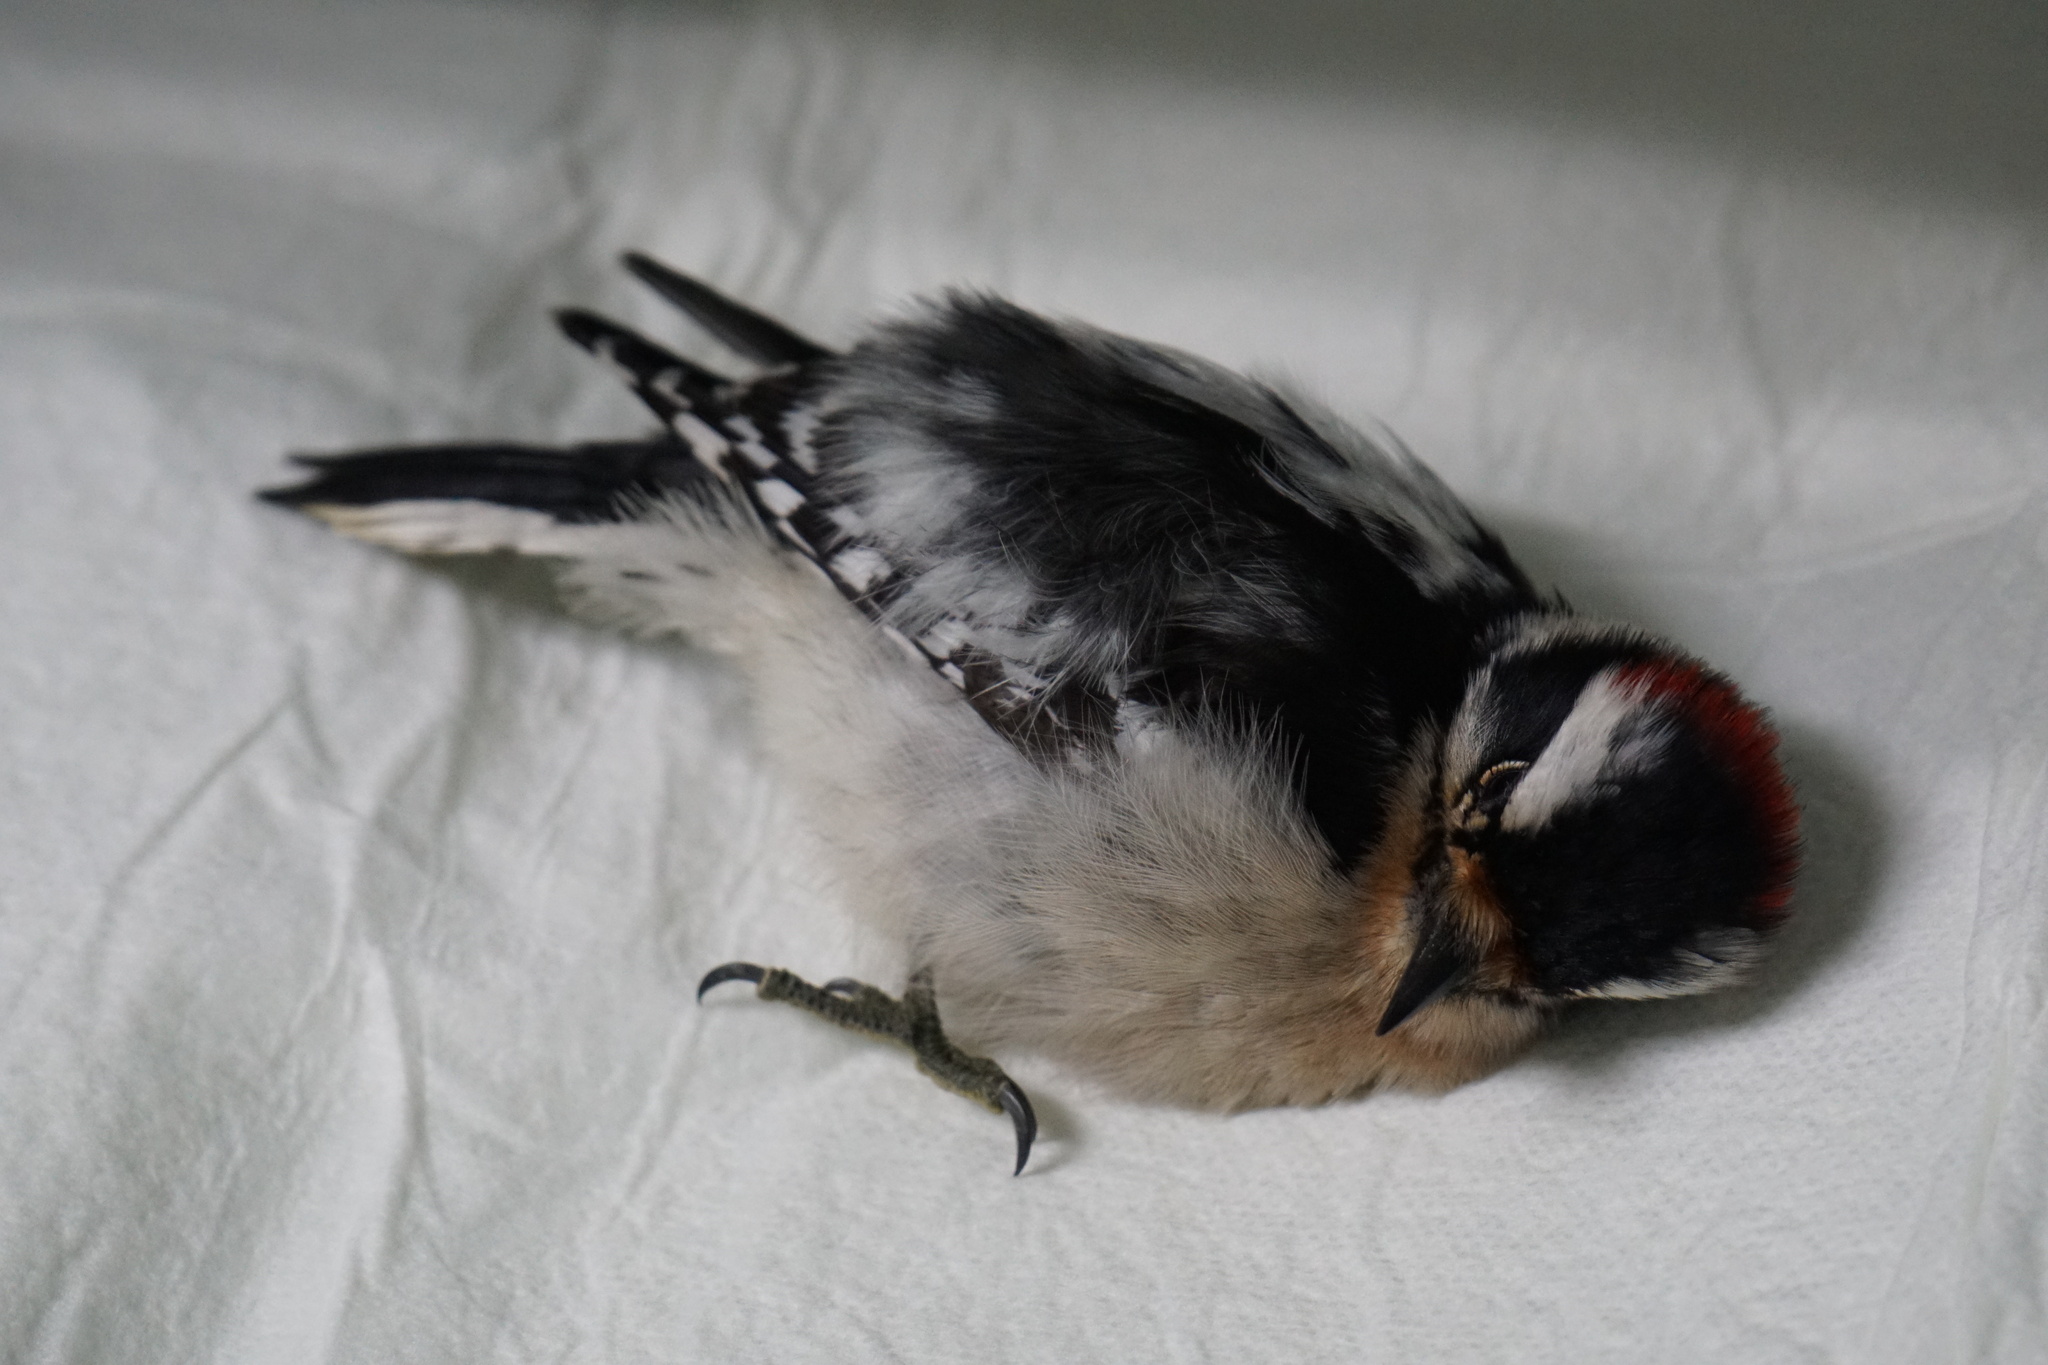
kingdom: Animalia
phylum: Chordata
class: Aves
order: Piciformes
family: Picidae
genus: Dryobates
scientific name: Dryobates pubescens
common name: Downy woodpecker
